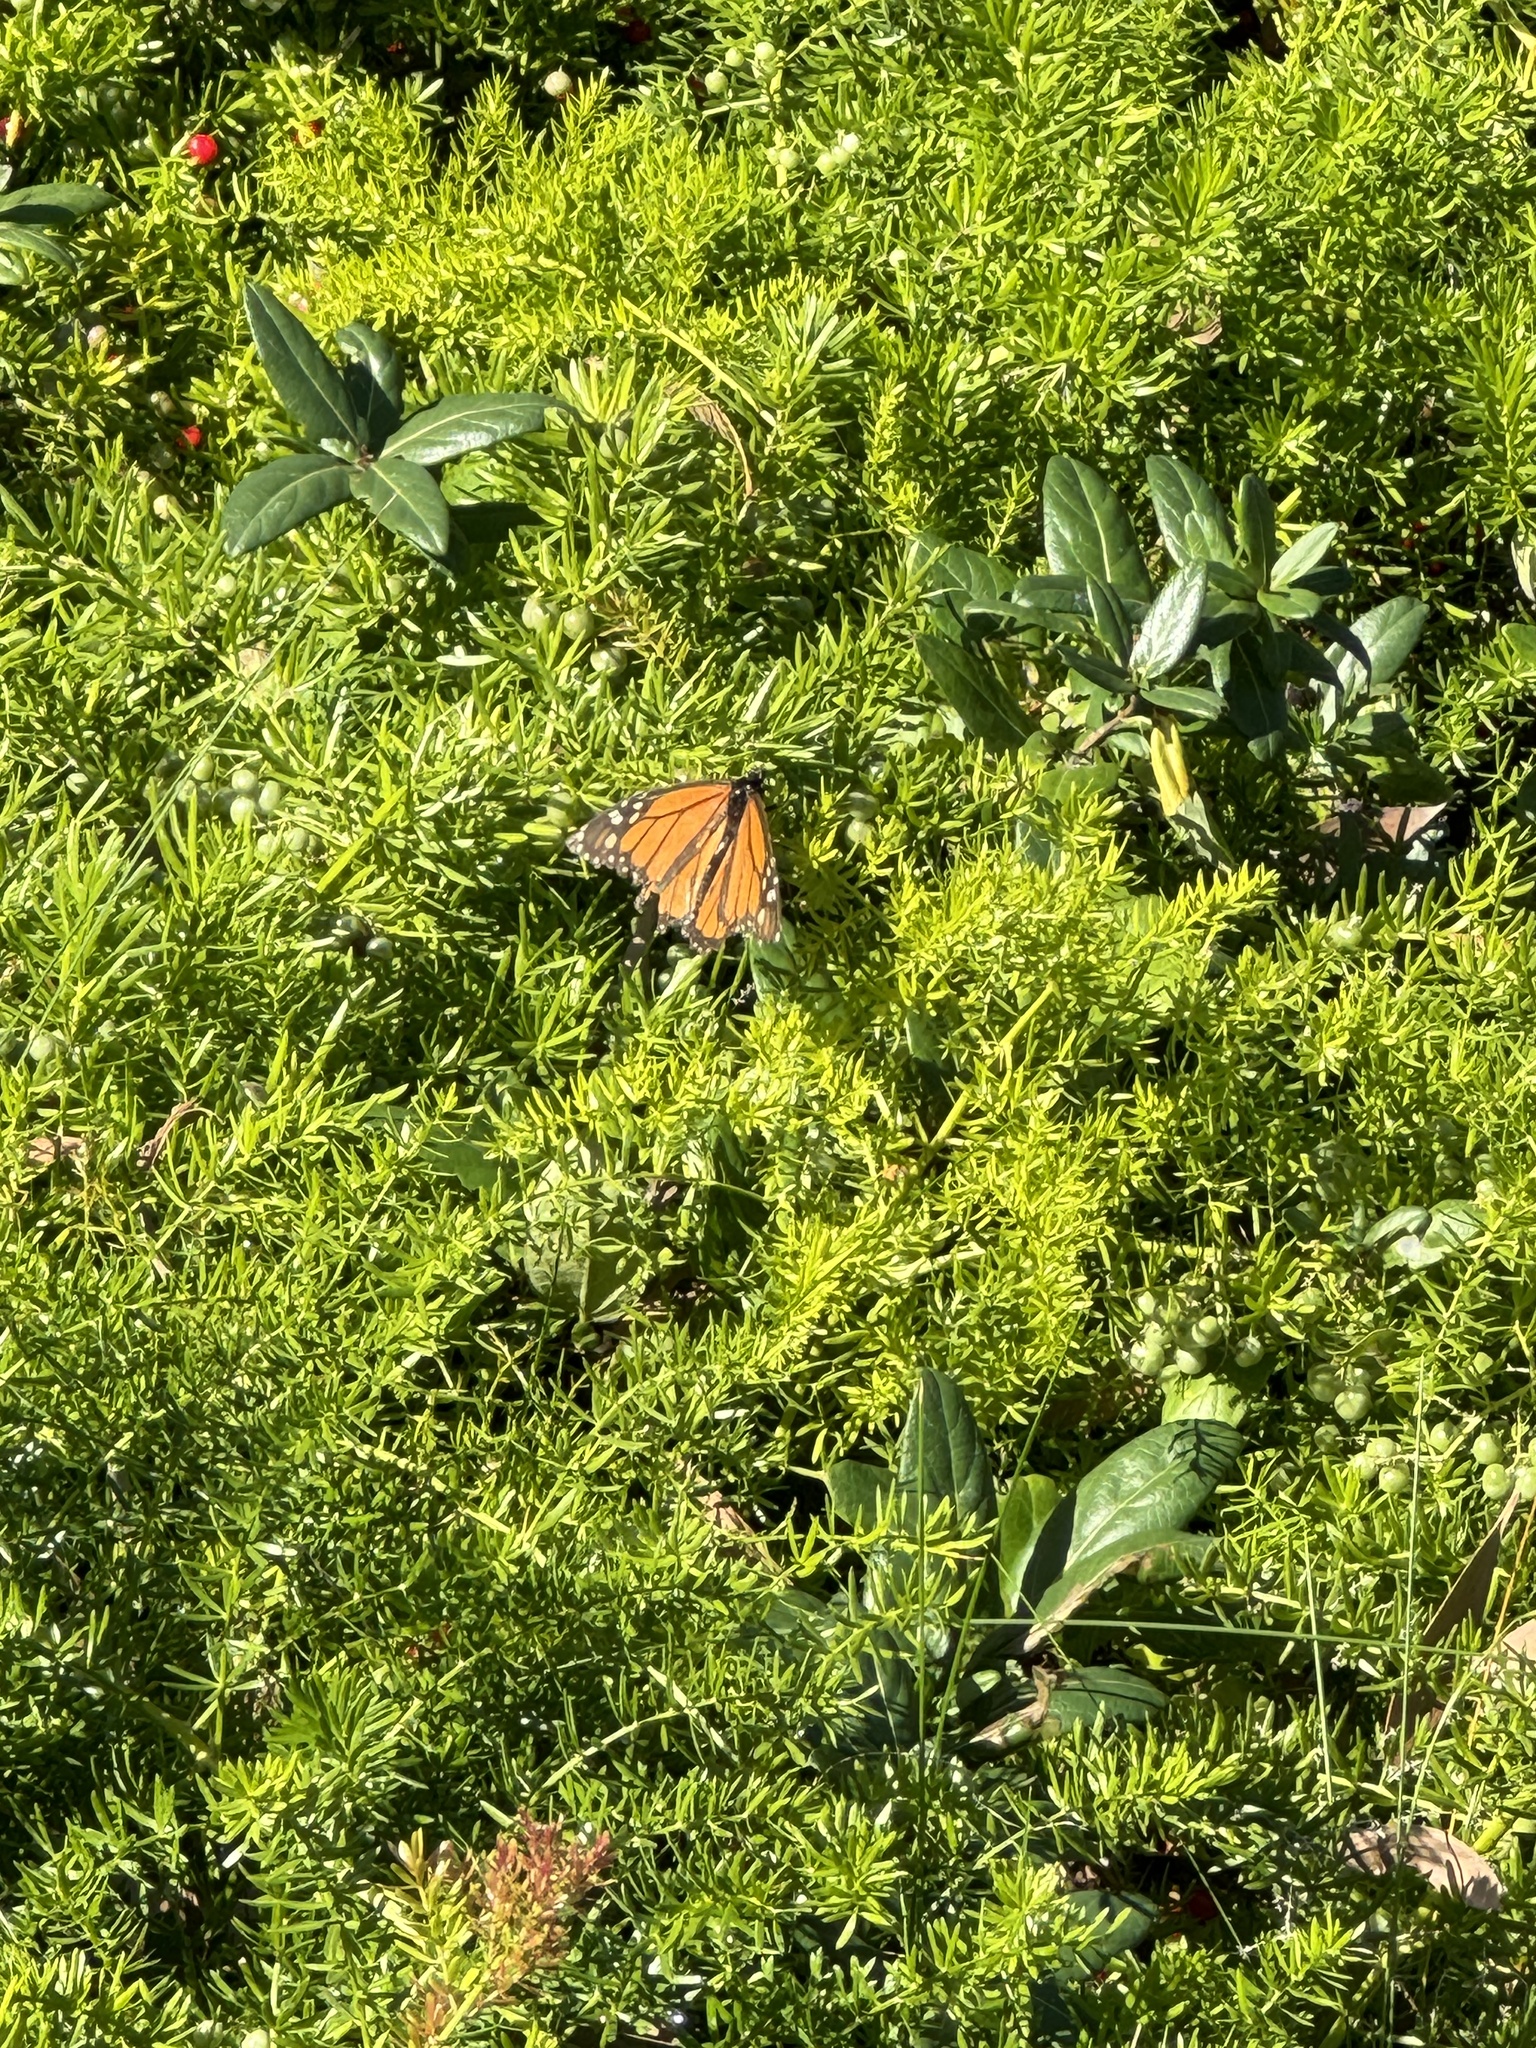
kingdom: Animalia
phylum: Arthropoda
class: Insecta
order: Lepidoptera
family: Nymphalidae
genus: Danaus
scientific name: Danaus plexippus
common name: Monarch
